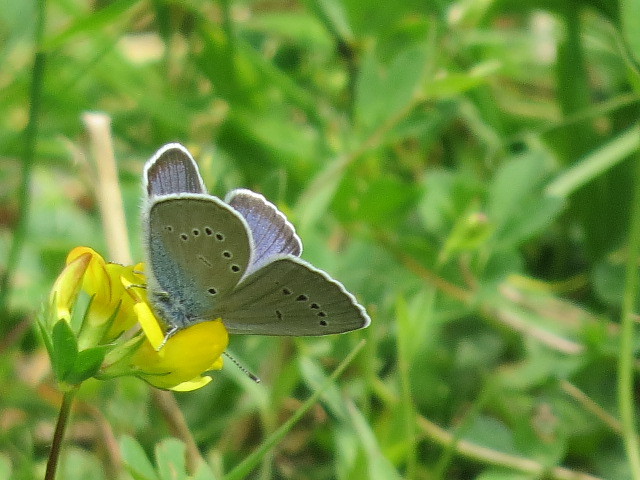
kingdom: Animalia
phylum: Arthropoda
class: Insecta
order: Lepidoptera
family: Lycaenidae
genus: Cyaniris
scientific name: Cyaniris semiargus
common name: Mazarine blue
